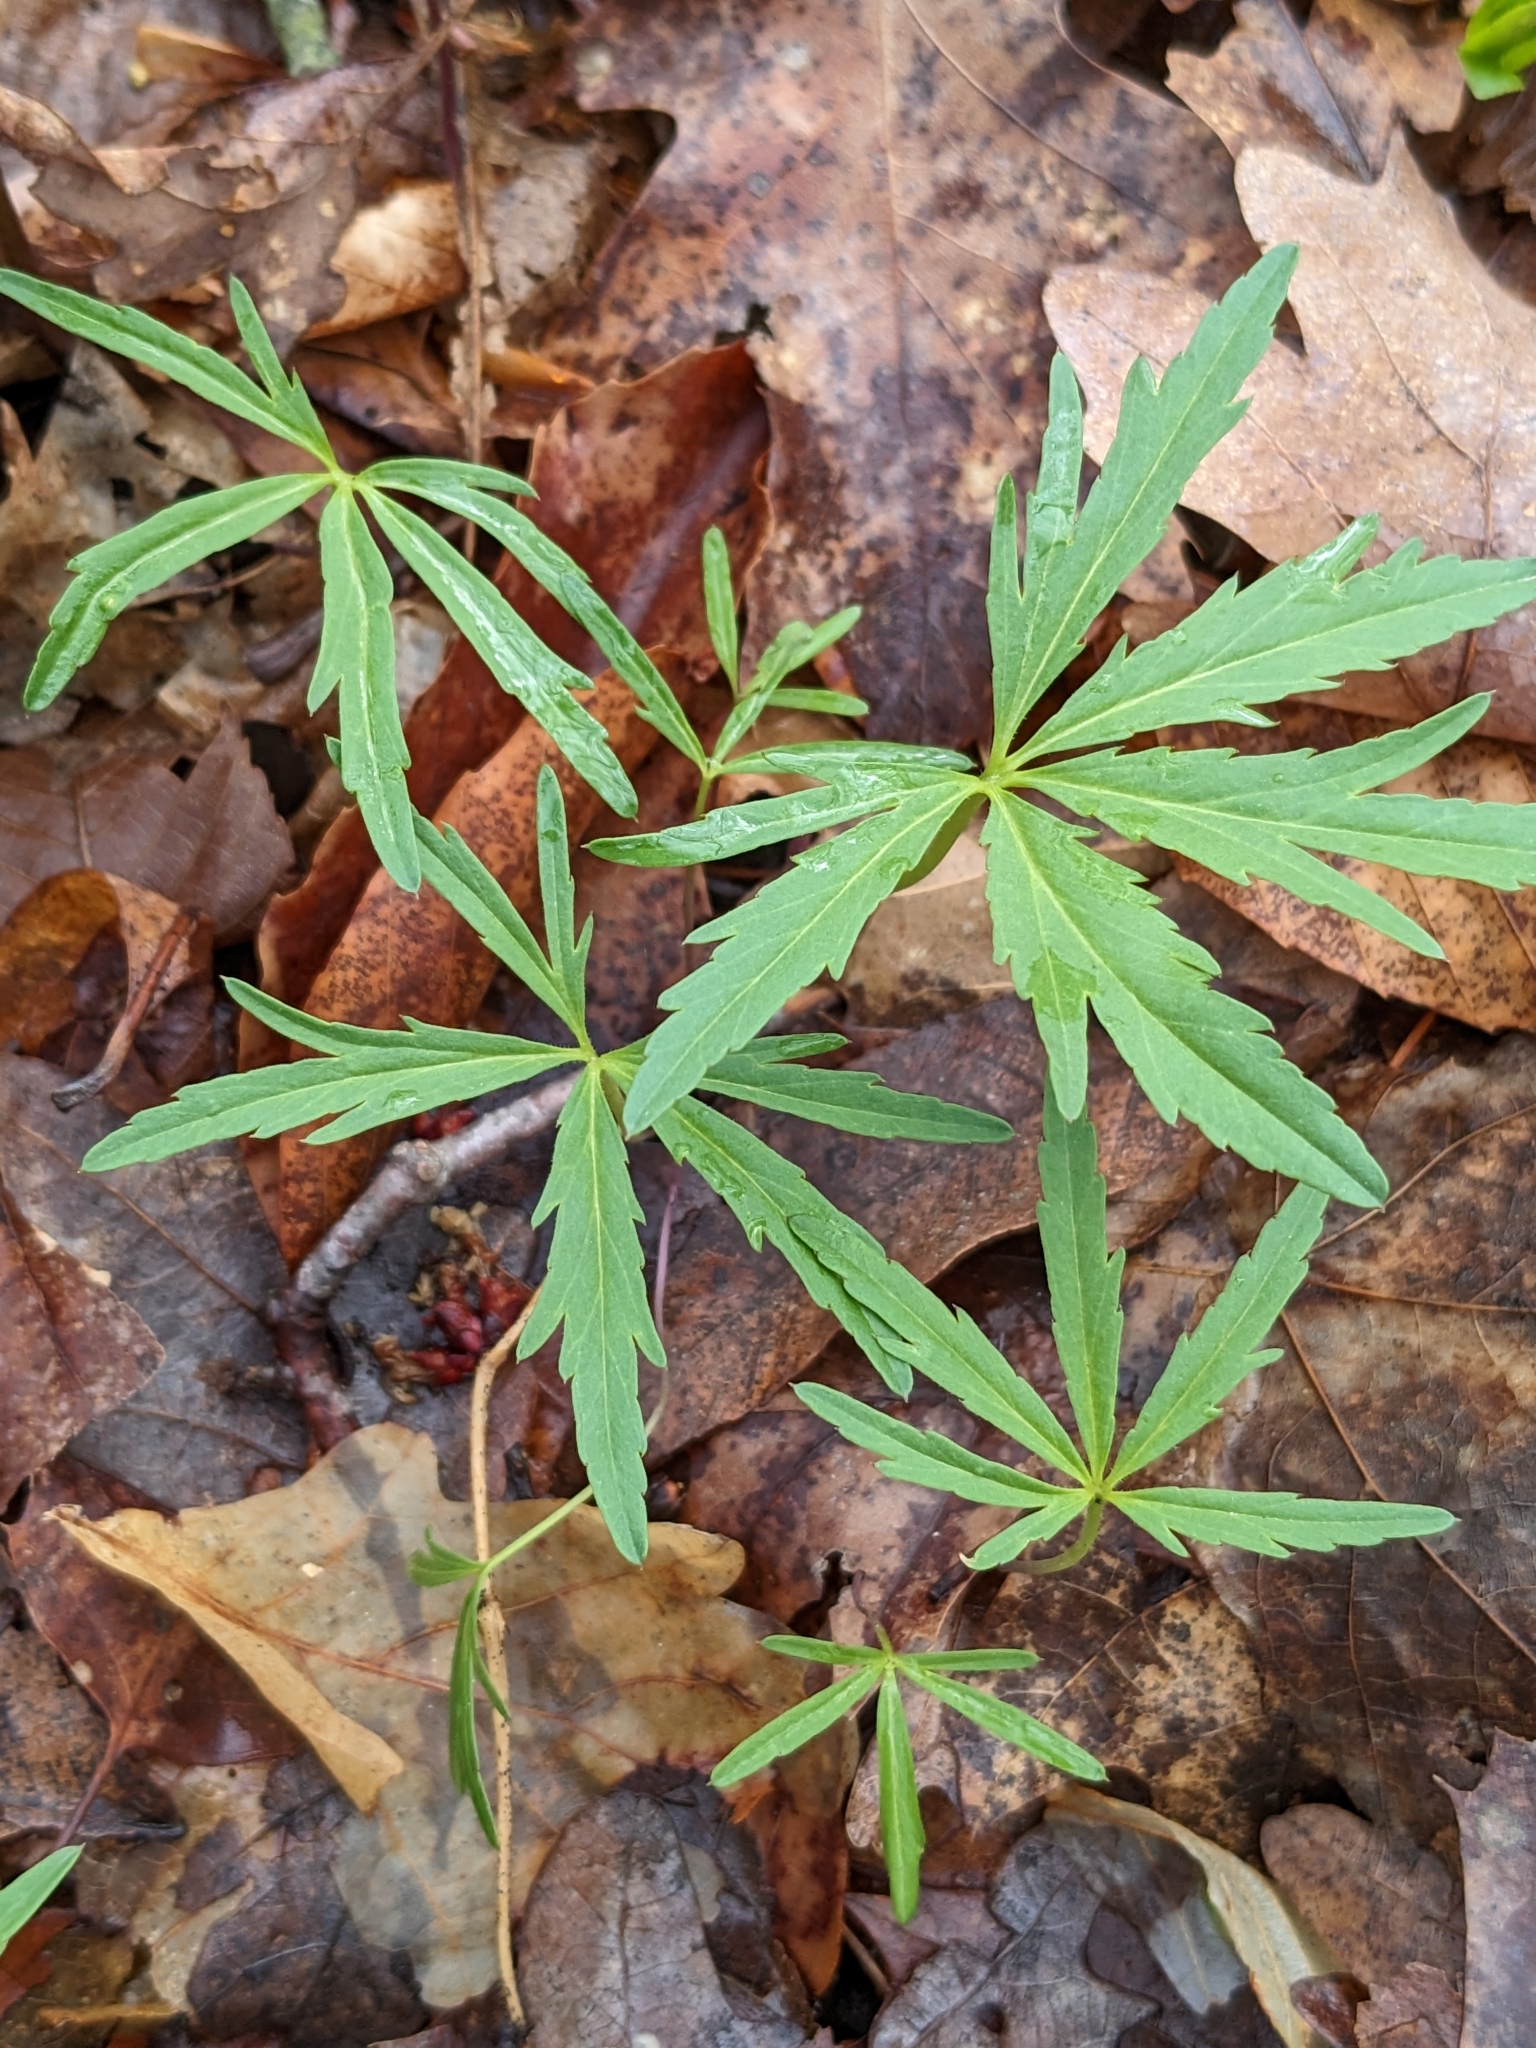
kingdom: Plantae
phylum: Tracheophyta
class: Magnoliopsida
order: Brassicales
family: Brassicaceae
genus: Cardamine
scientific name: Cardamine concatenata
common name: Cut-leaf toothcup
